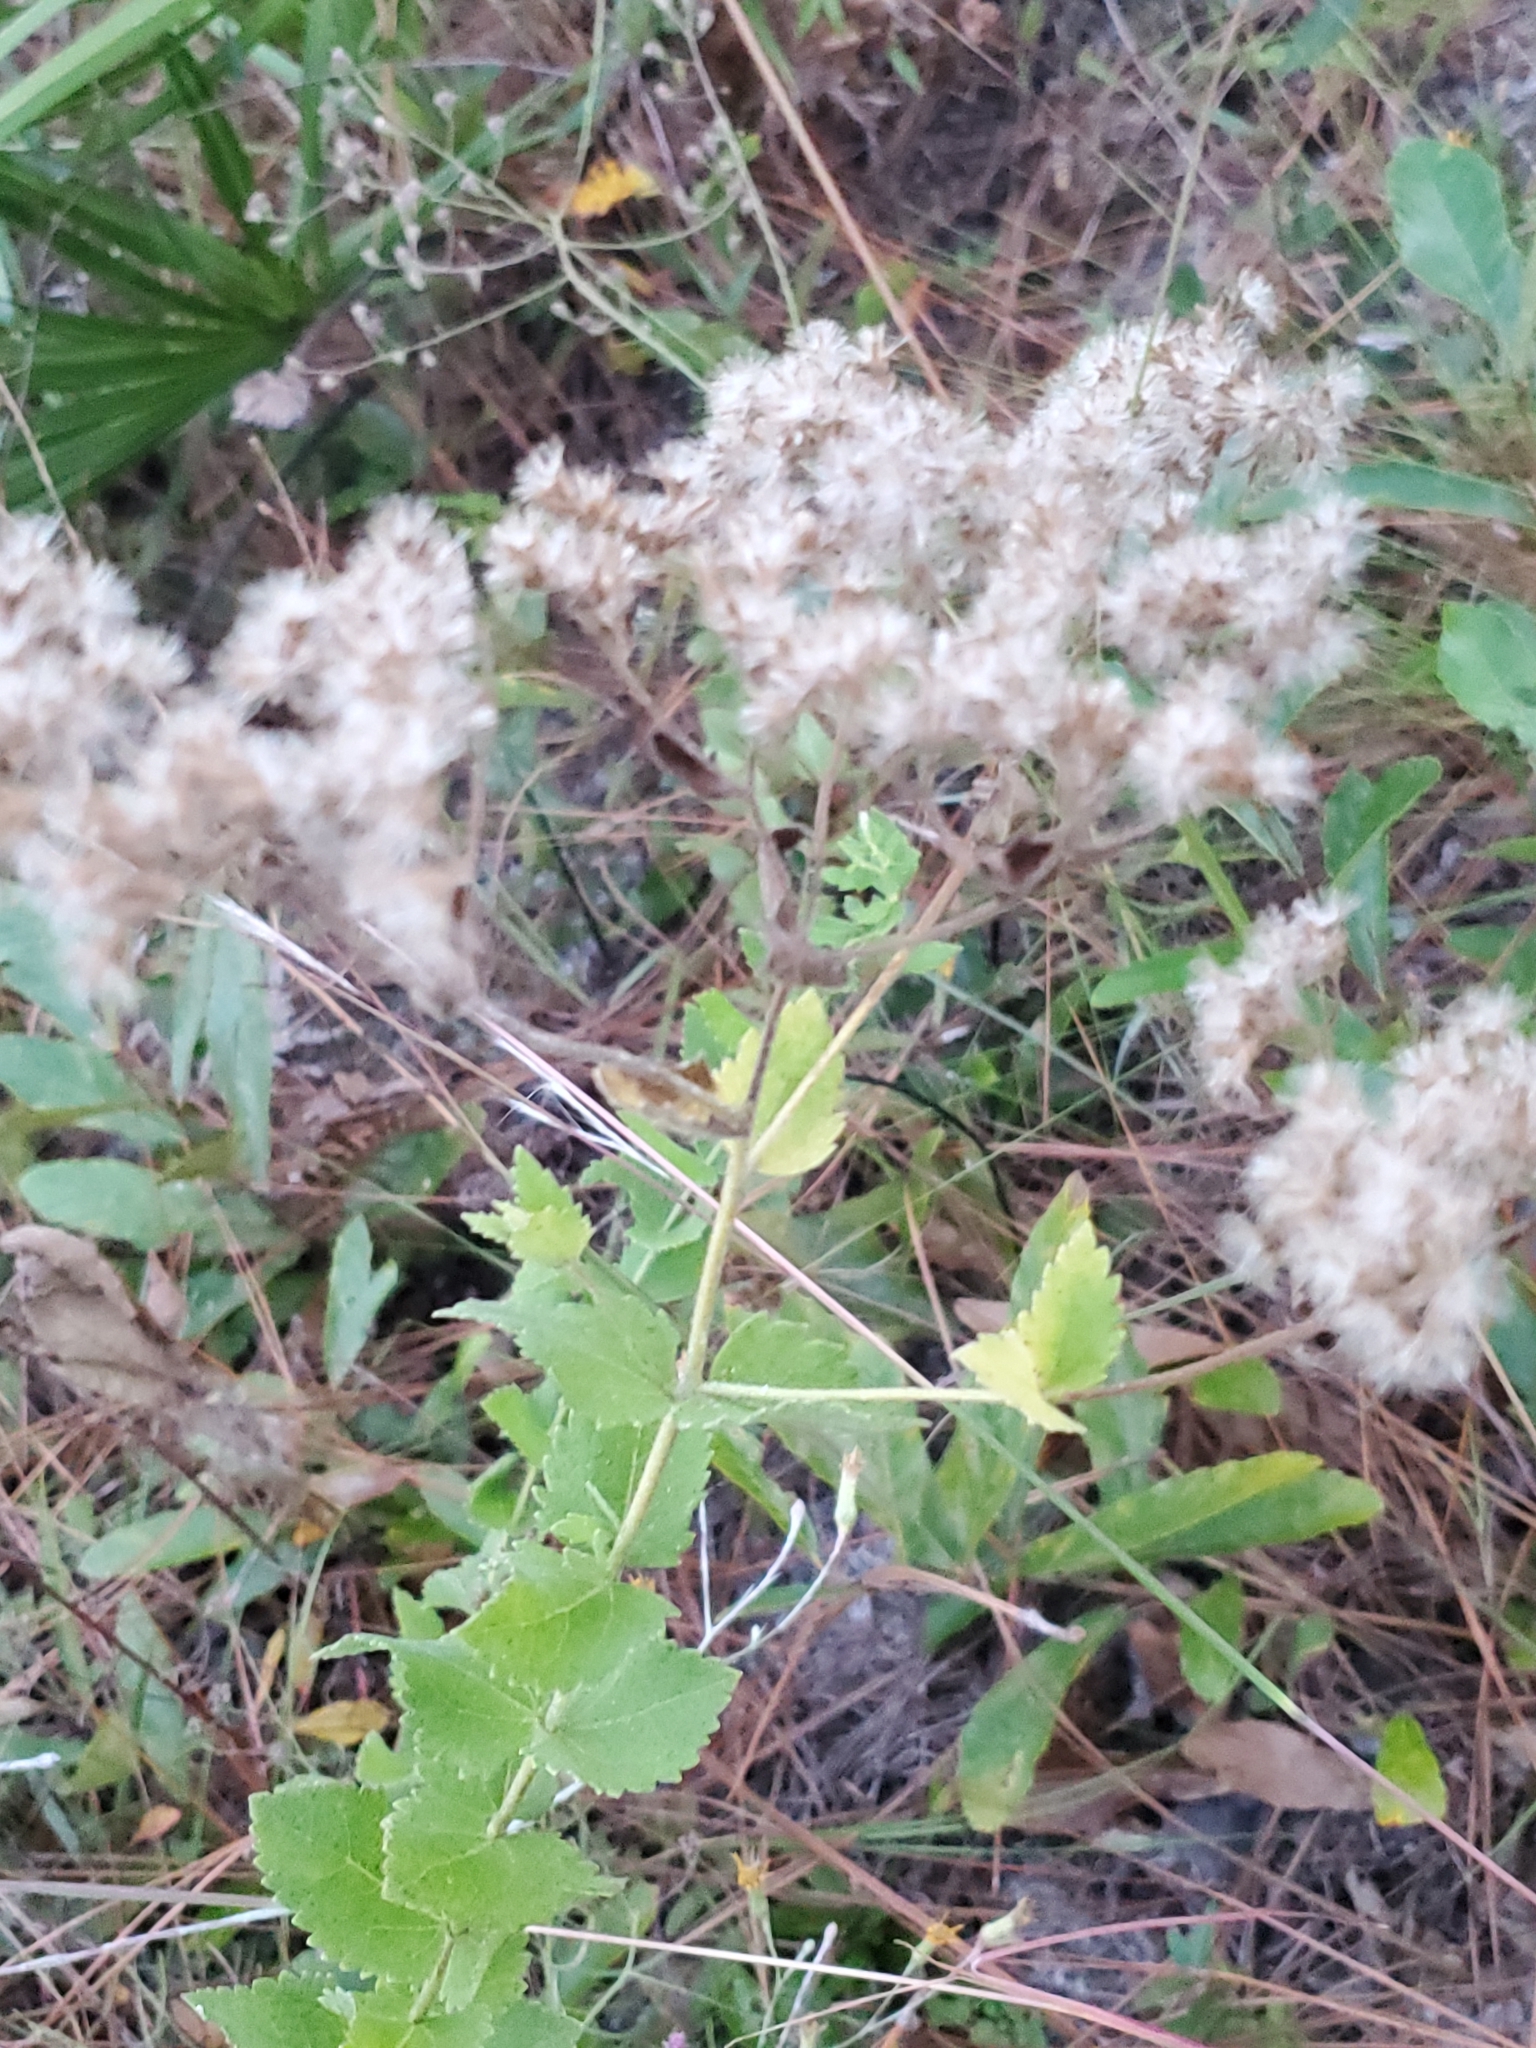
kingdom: Plantae
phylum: Tracheophyta
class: Magnoliopsida
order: Asterales
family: Asteraceae
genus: Ageratina
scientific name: Ageratina aromatica
